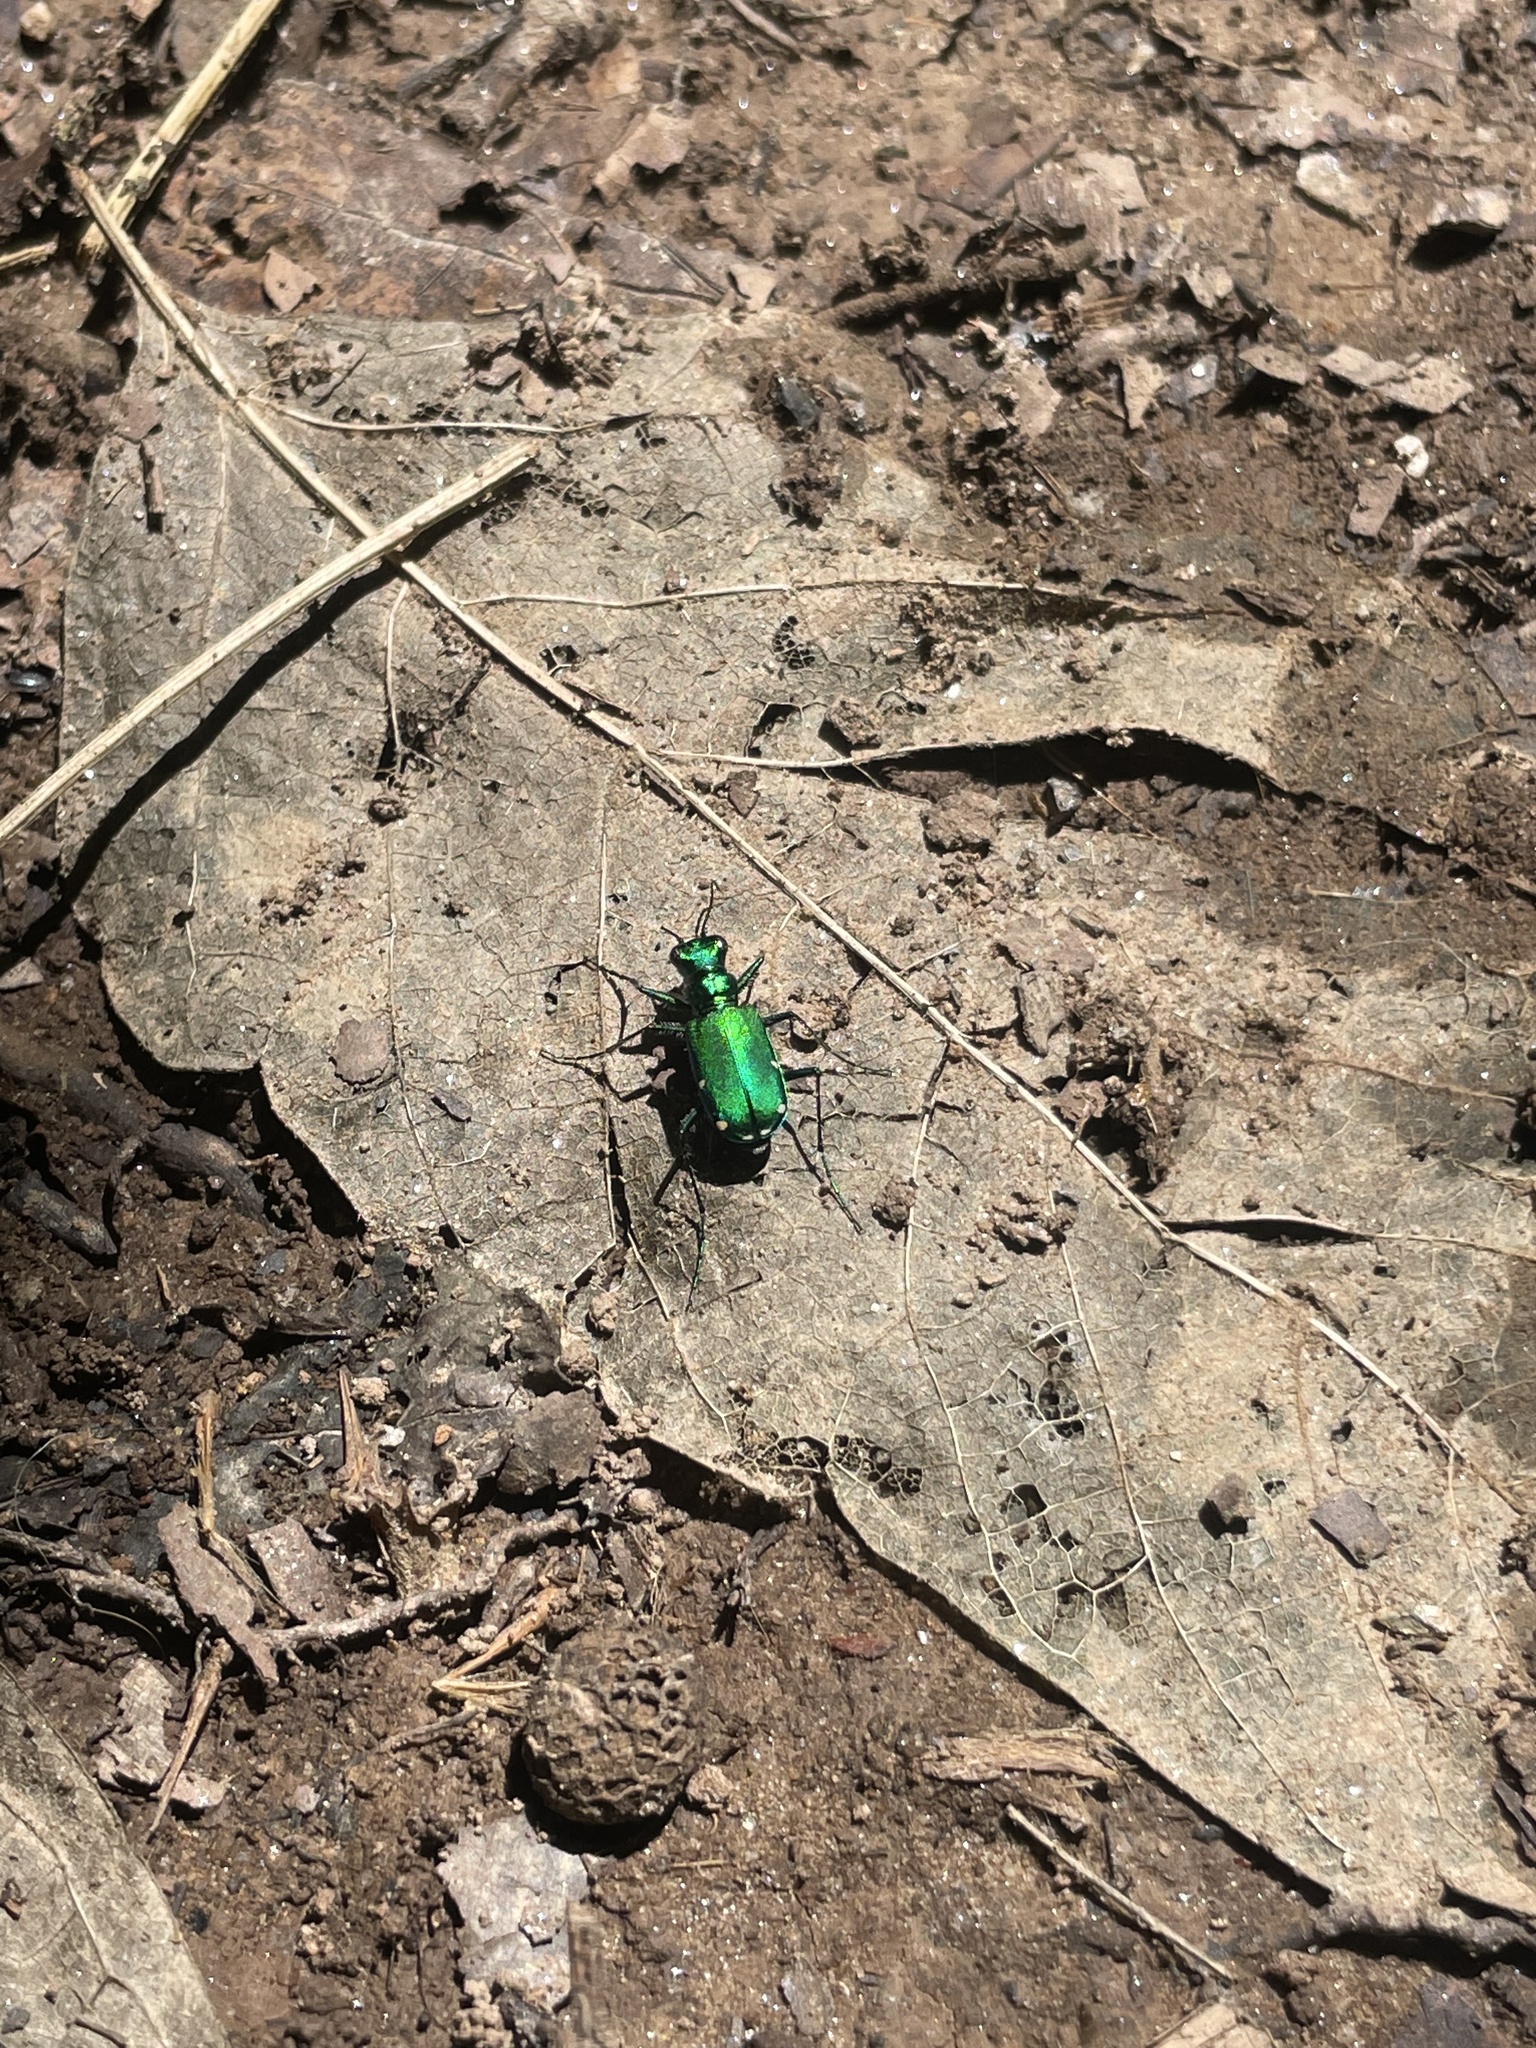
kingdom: Animalia
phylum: Arthropoda
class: Insecta
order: Coleoptera
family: Carabidae
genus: Cicindela
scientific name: Cicindela sexguttata
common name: Six-spotted tiger beetle
